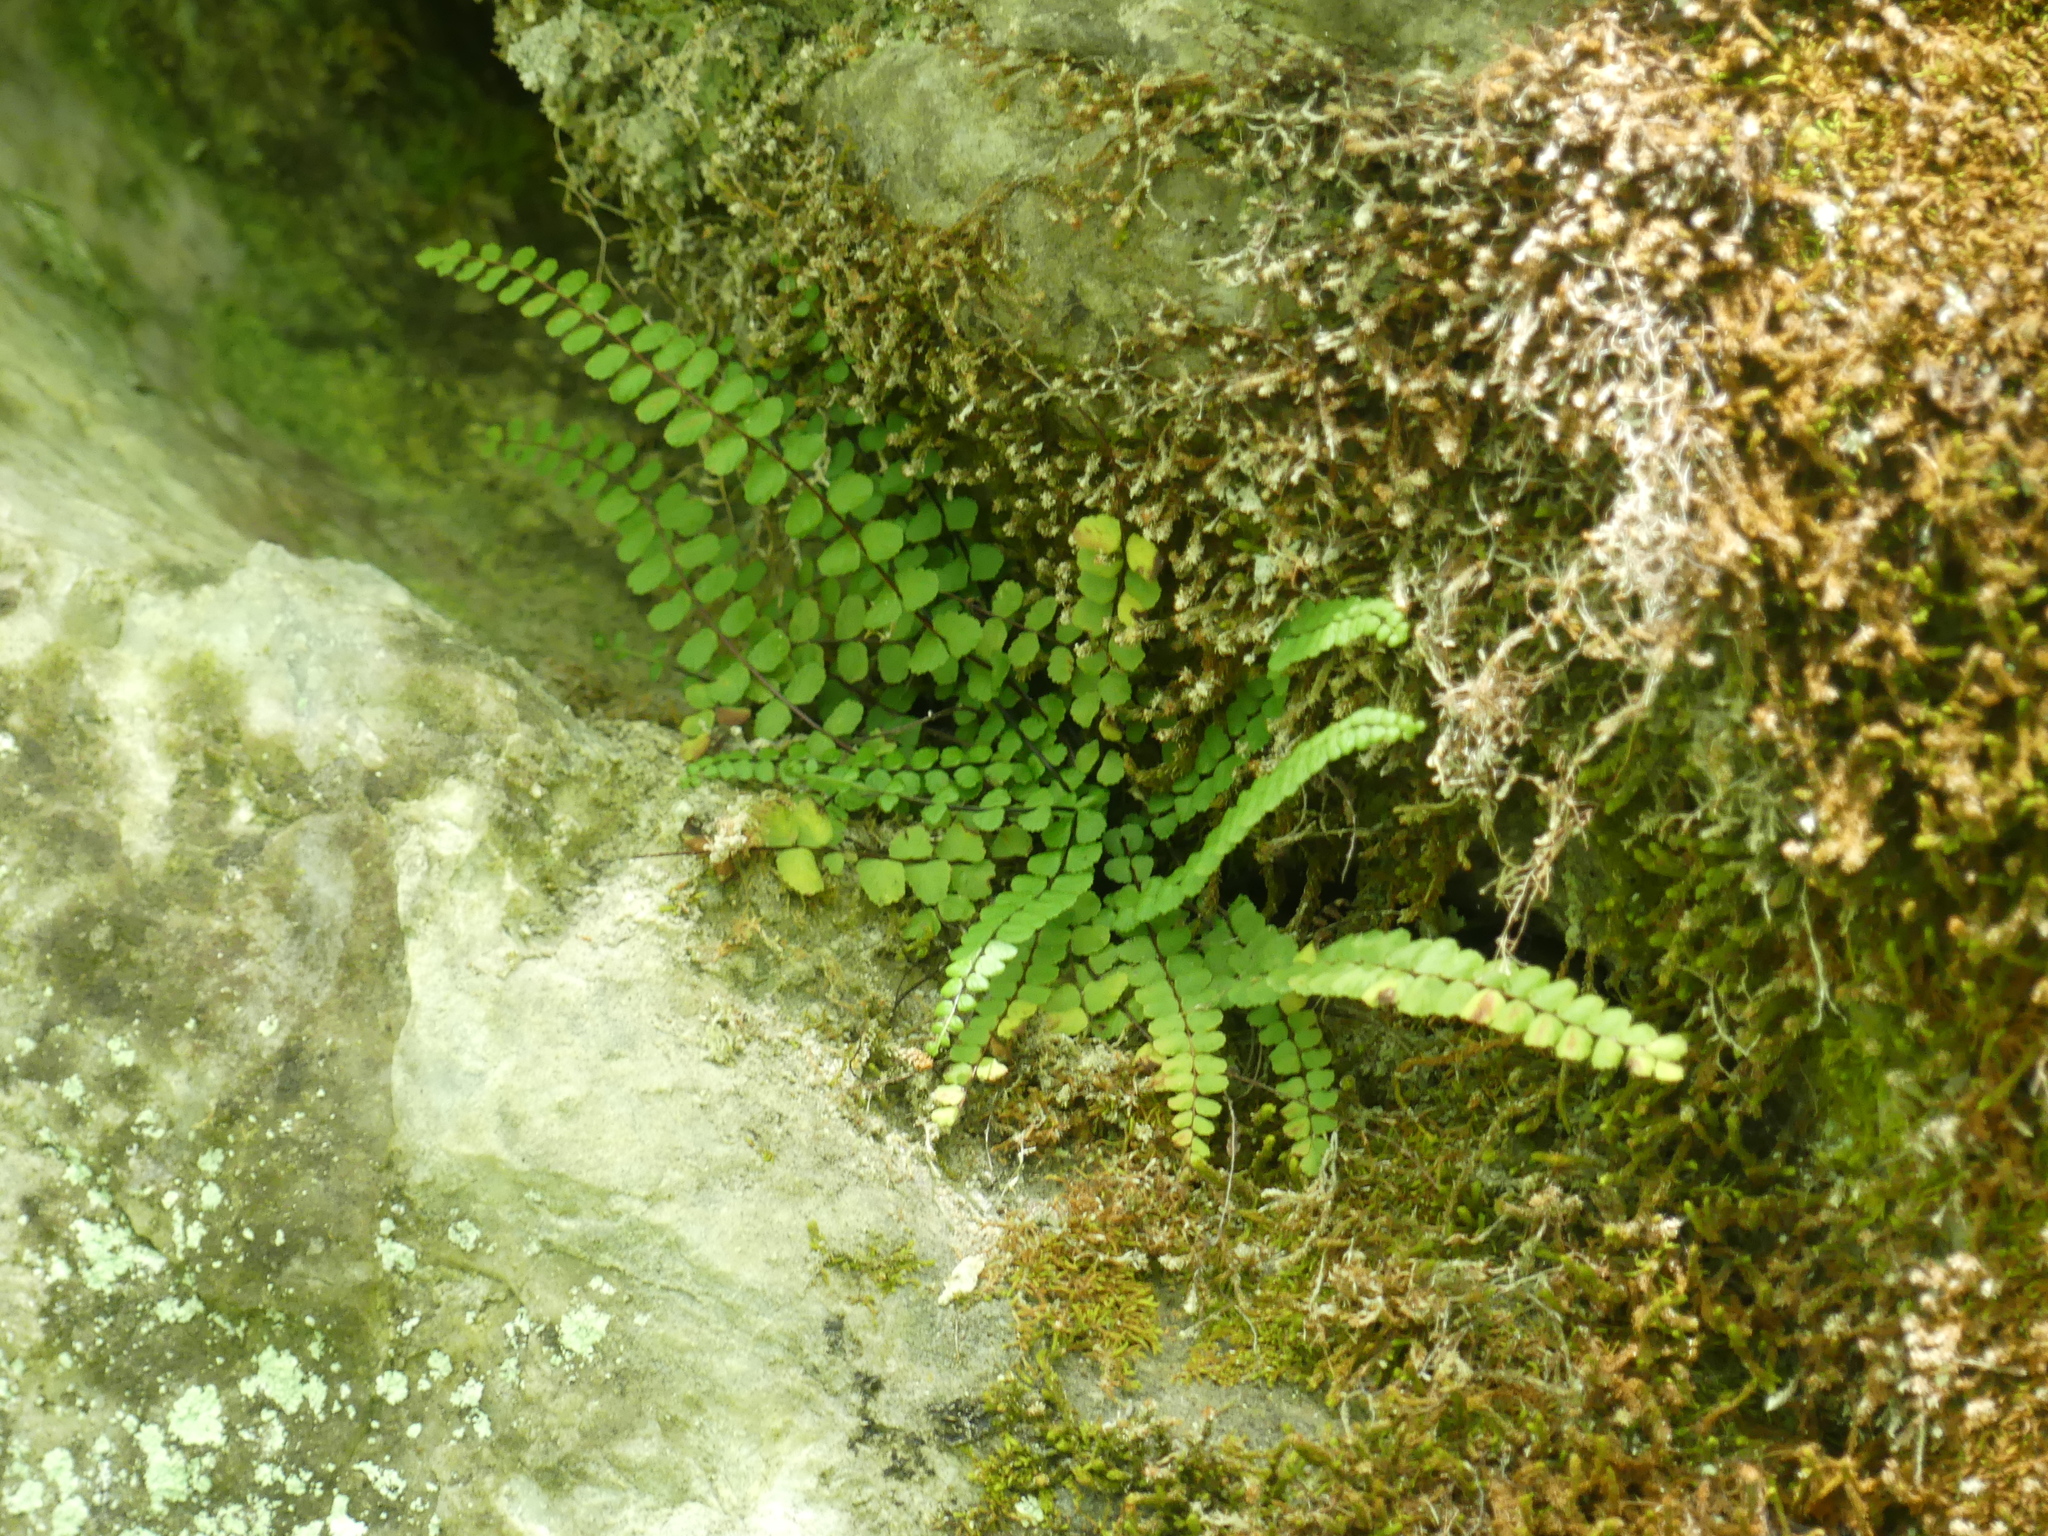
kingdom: Plantae
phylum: Tracheophyta
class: Polypodiopsida
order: Polypodiales
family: Aspleniaceae
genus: Asplenium
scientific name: Asplenium trichomanes
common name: Maidenhair spleenwort
